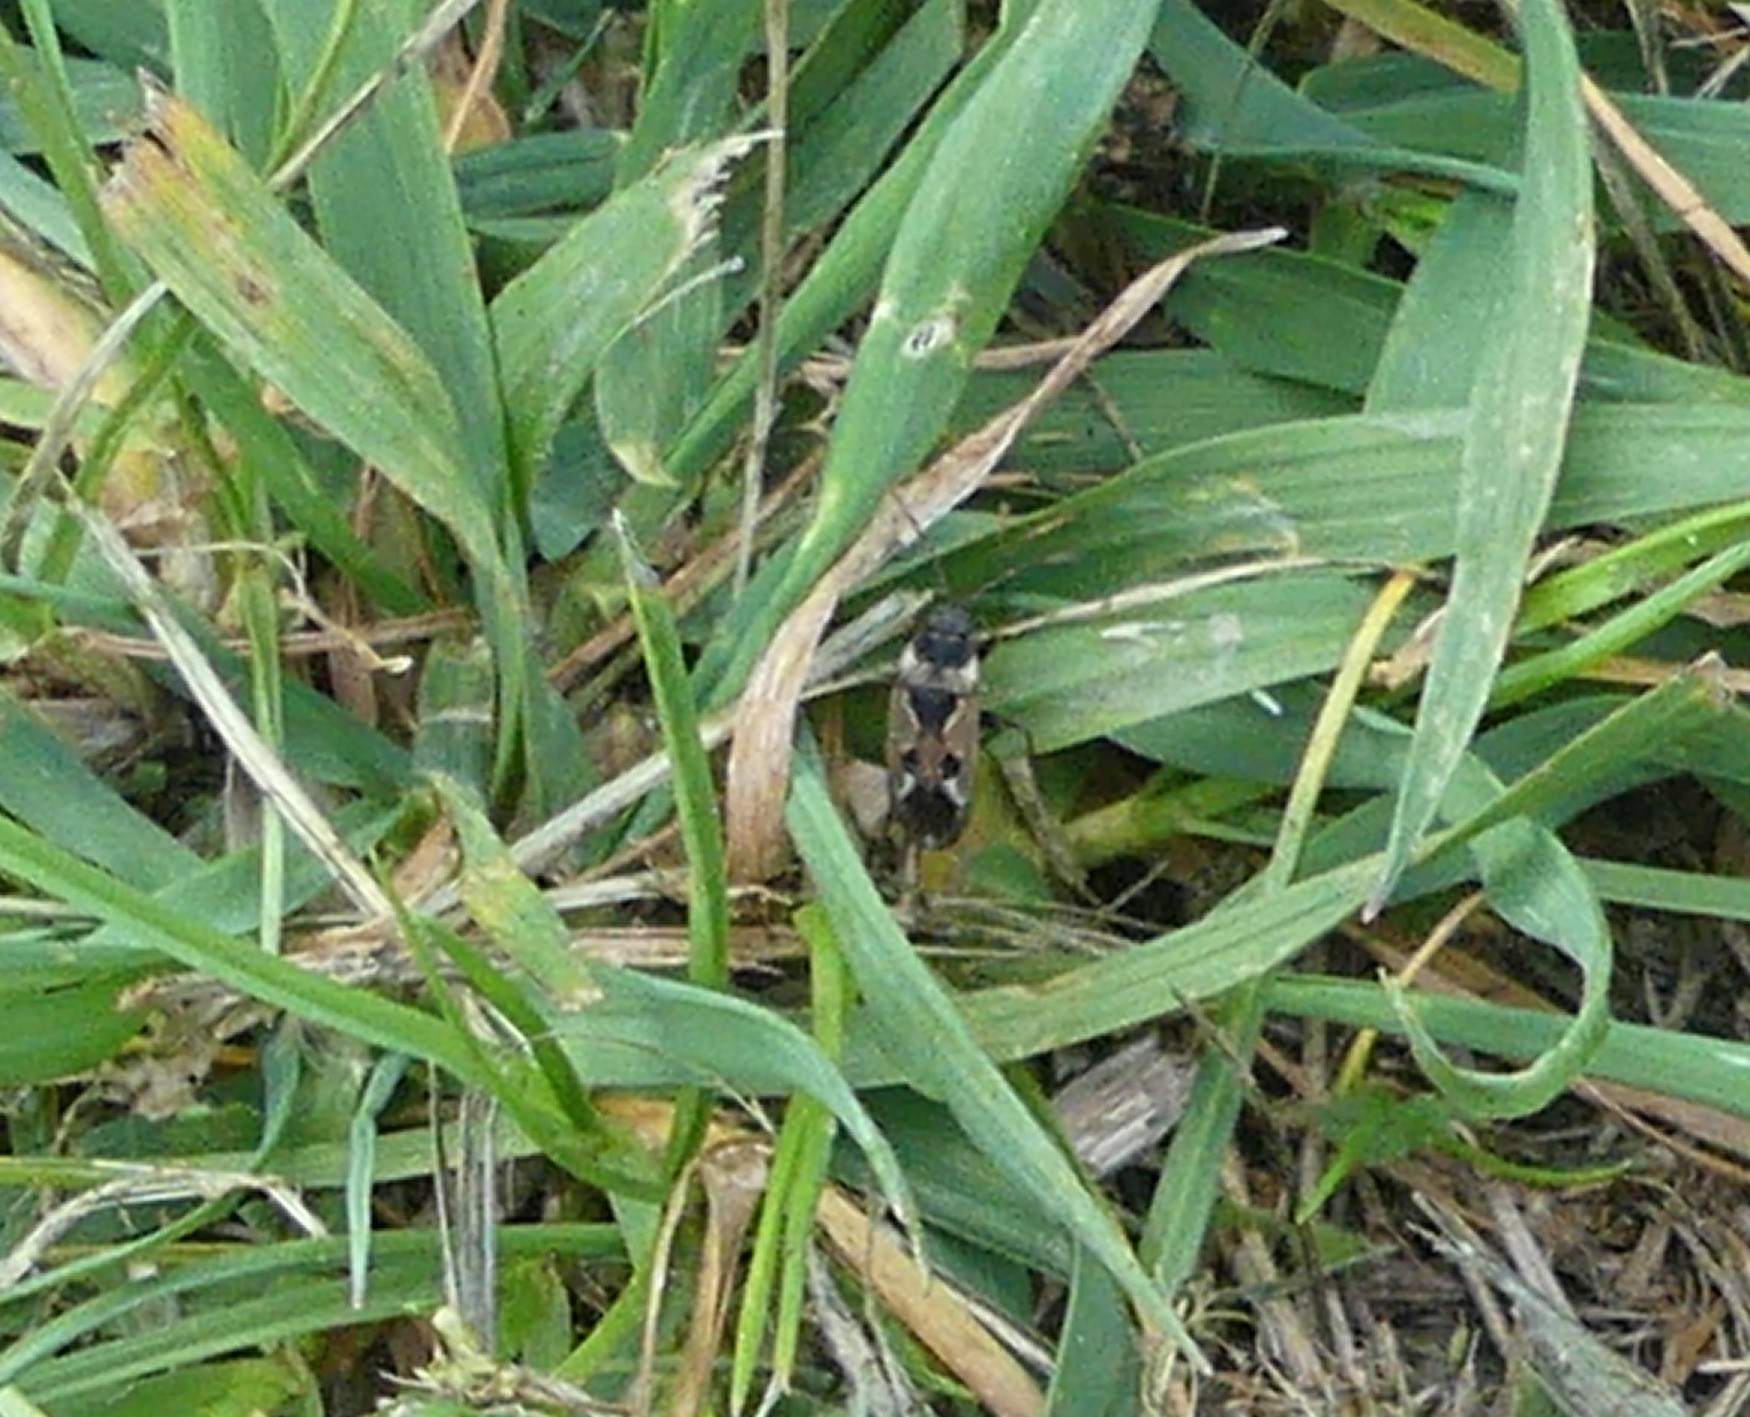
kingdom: Animalia
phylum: Arthropoda
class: Insecta
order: Hemiptera
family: Rhyparochromidae
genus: Rhyparochromus
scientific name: Rhyparochromus vulgaris
